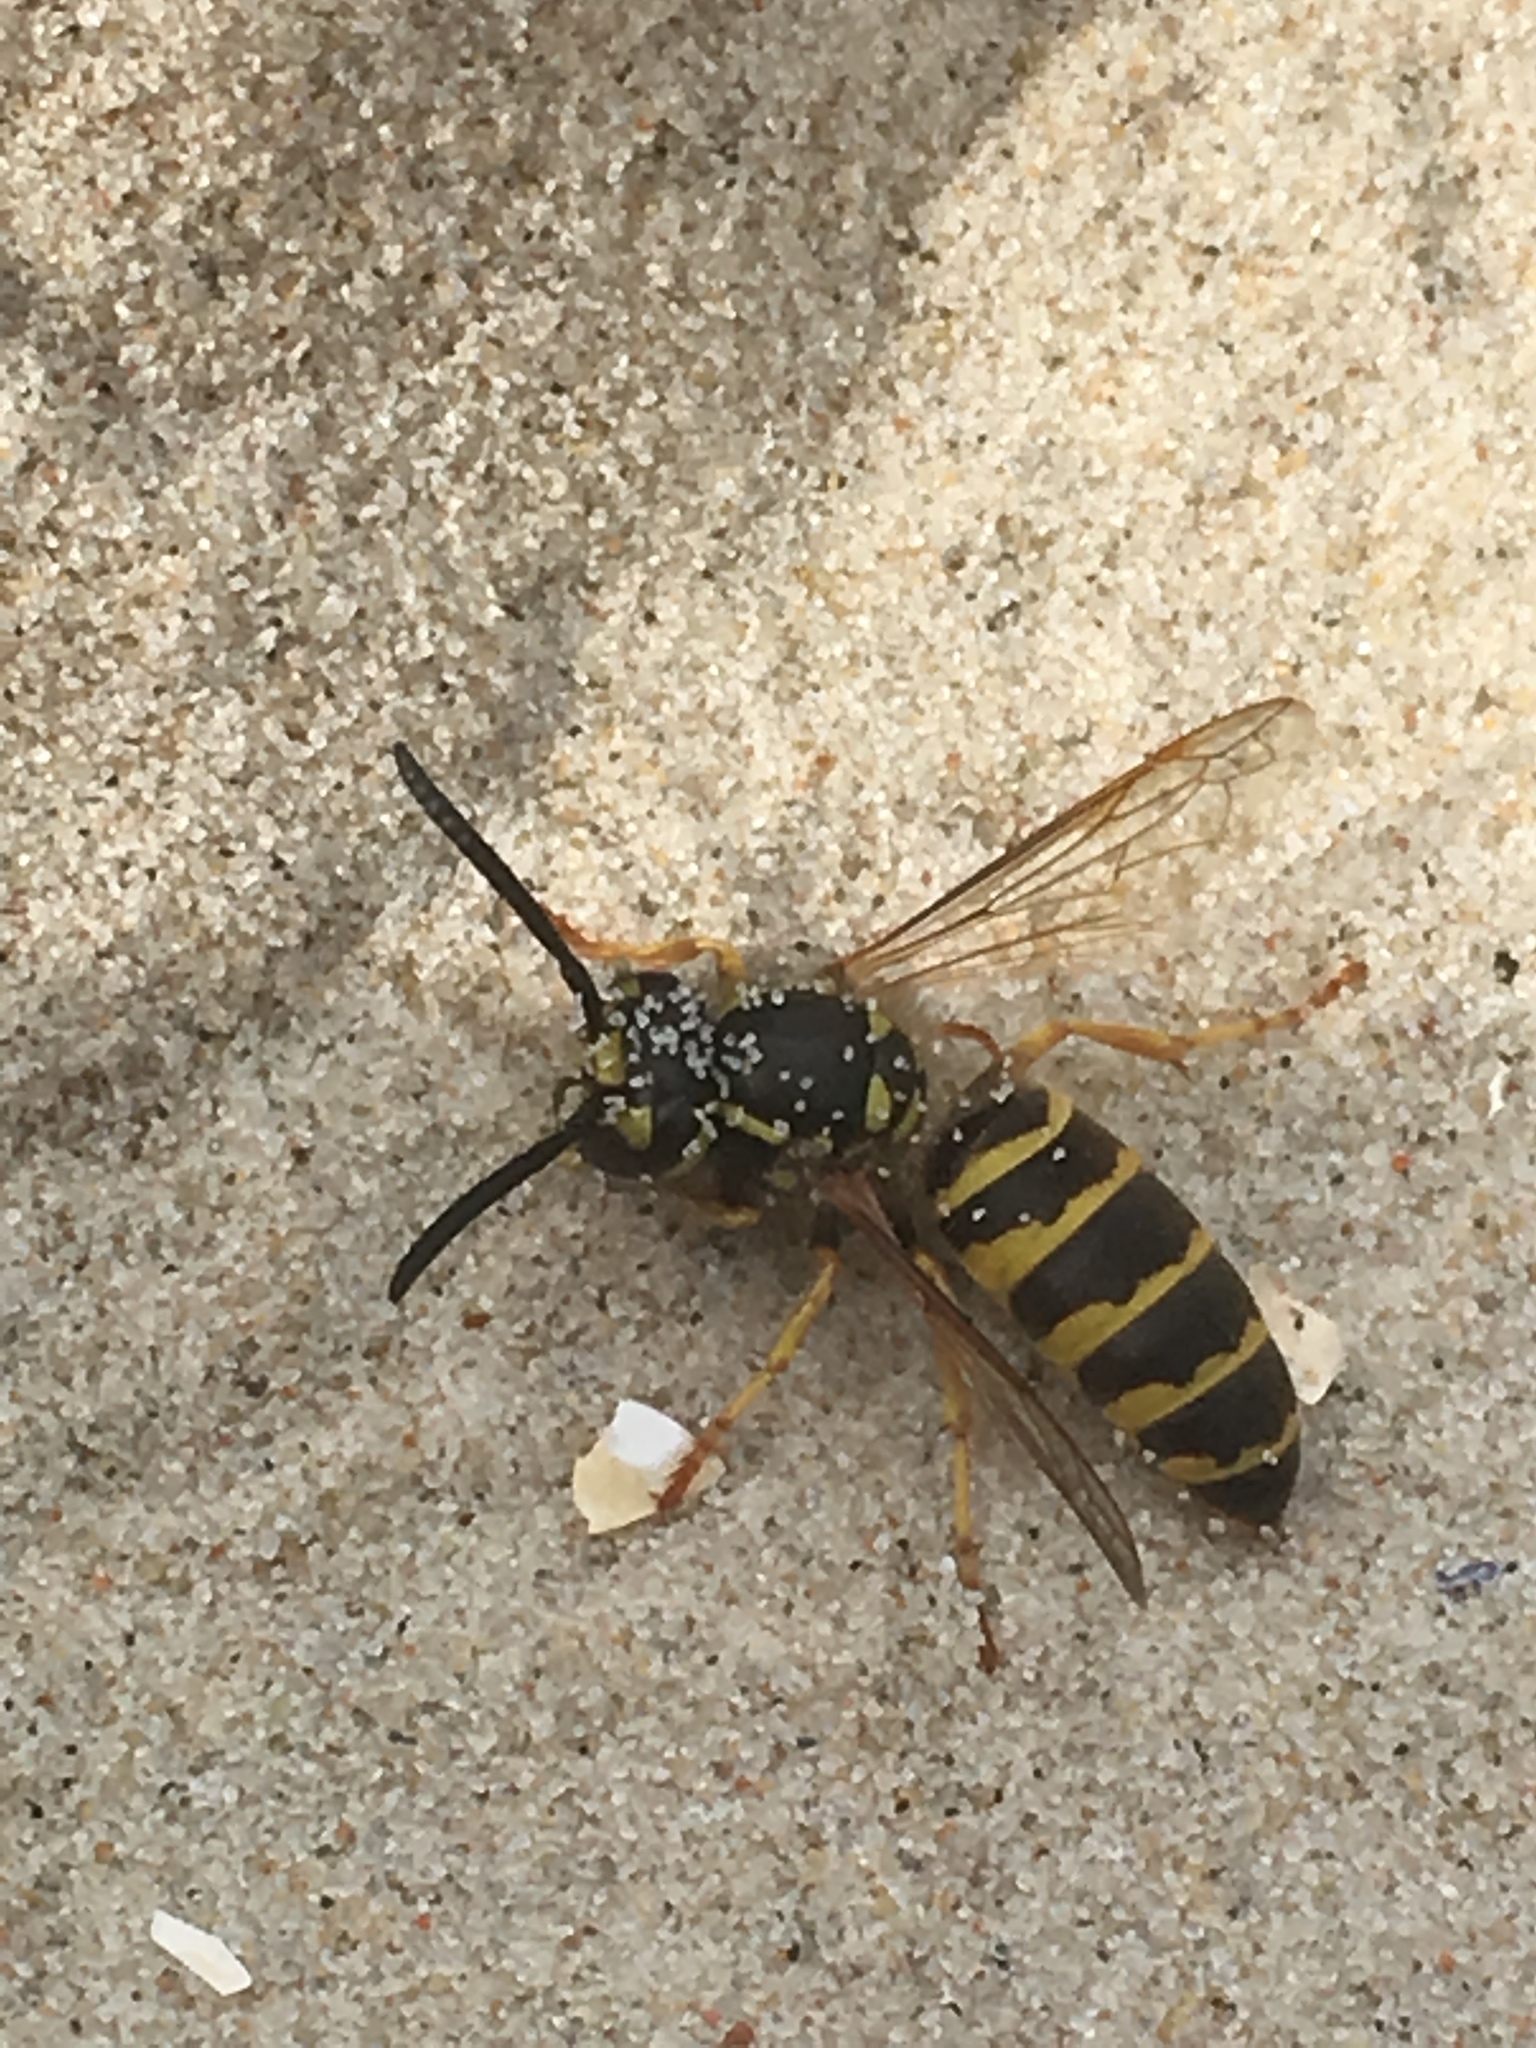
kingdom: Animalia
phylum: Arthropoda
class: Insecta
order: Hymenoptera
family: Vespidae
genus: Vespula
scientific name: Vespula vulgaris
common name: Common wasp
